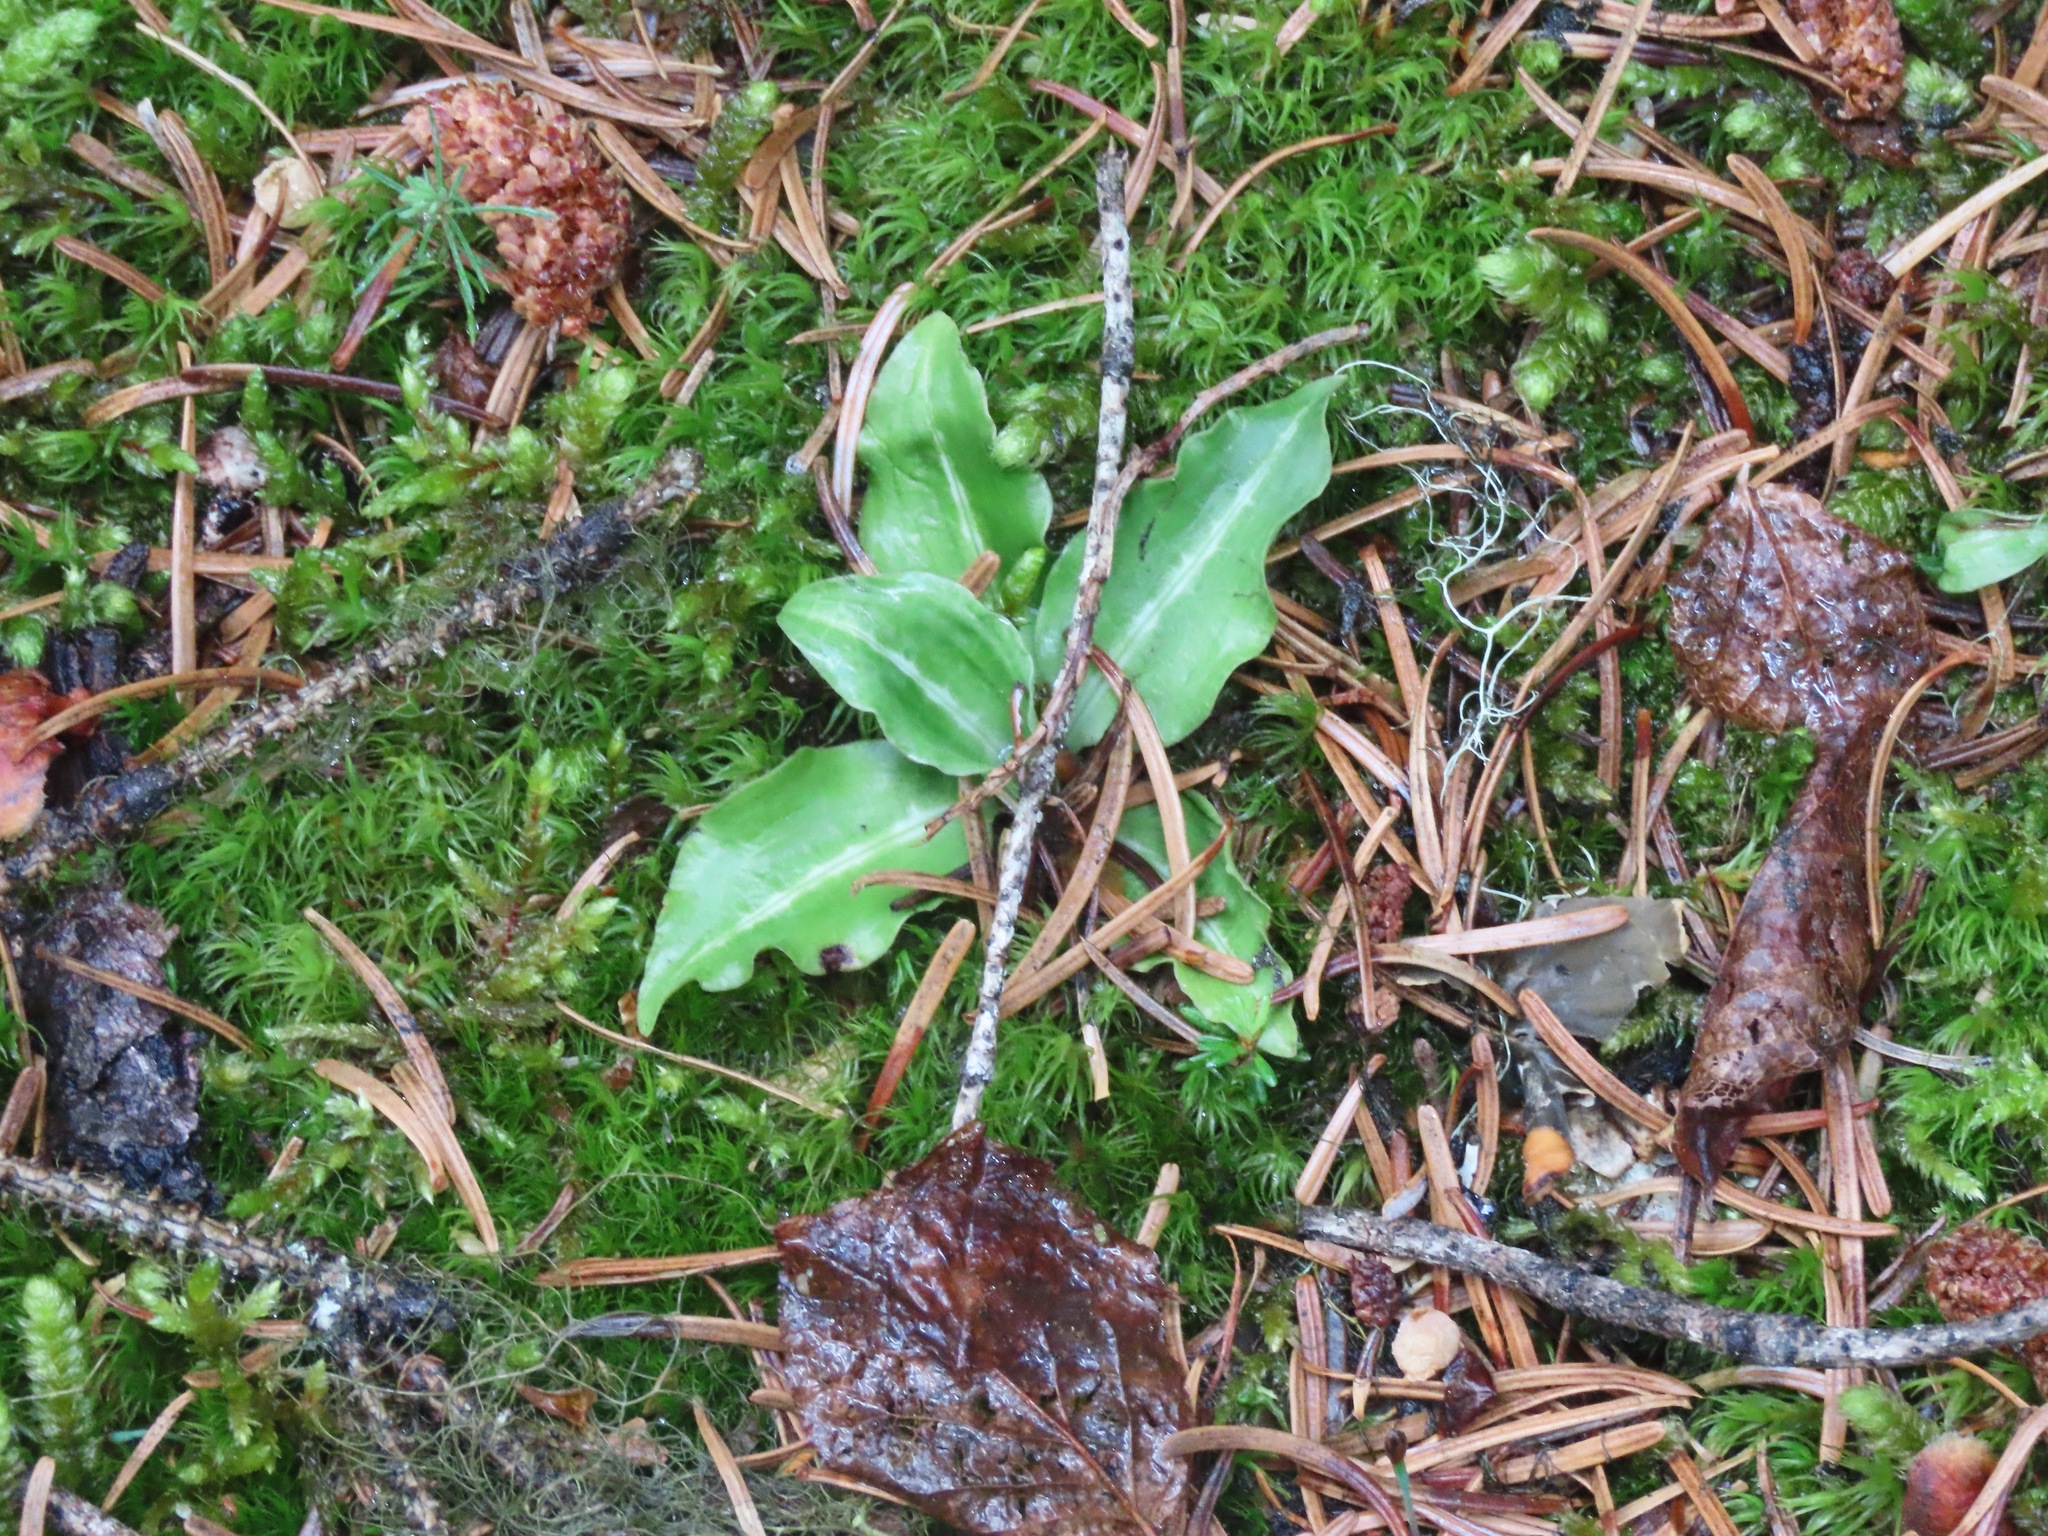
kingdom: Plantae
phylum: Tracheophyta
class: Liliopsida
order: Asparagales
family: Orchidaceae
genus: Goodyera
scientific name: Goodyera oblongifolia
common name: Giant rattlesnake-plantain
